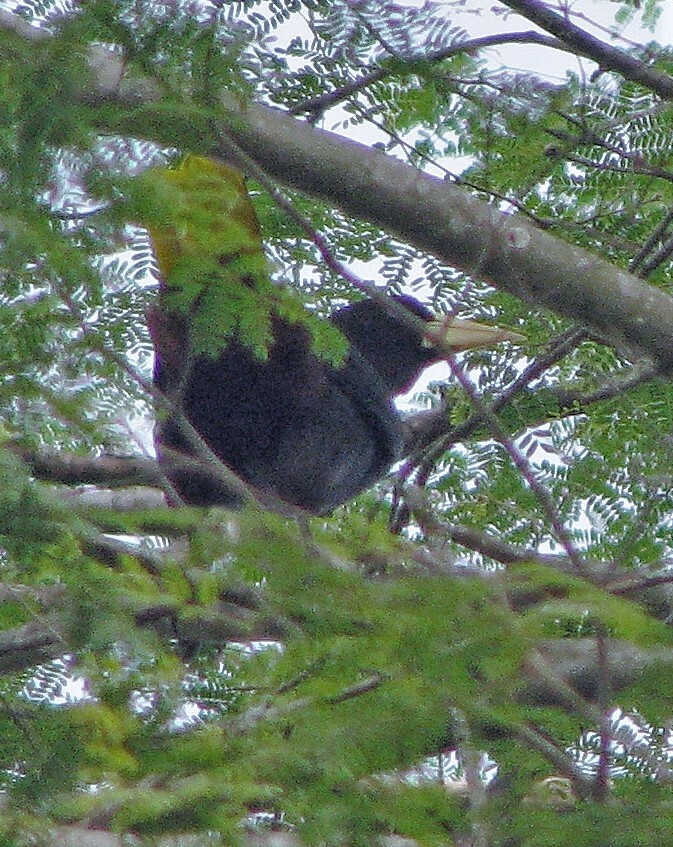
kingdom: Animalia
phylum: Chordata
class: Aves
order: Passeriformes
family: Icteridae
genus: Psarocolius
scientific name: Psarocolius decumanus
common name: Crested oropendola
